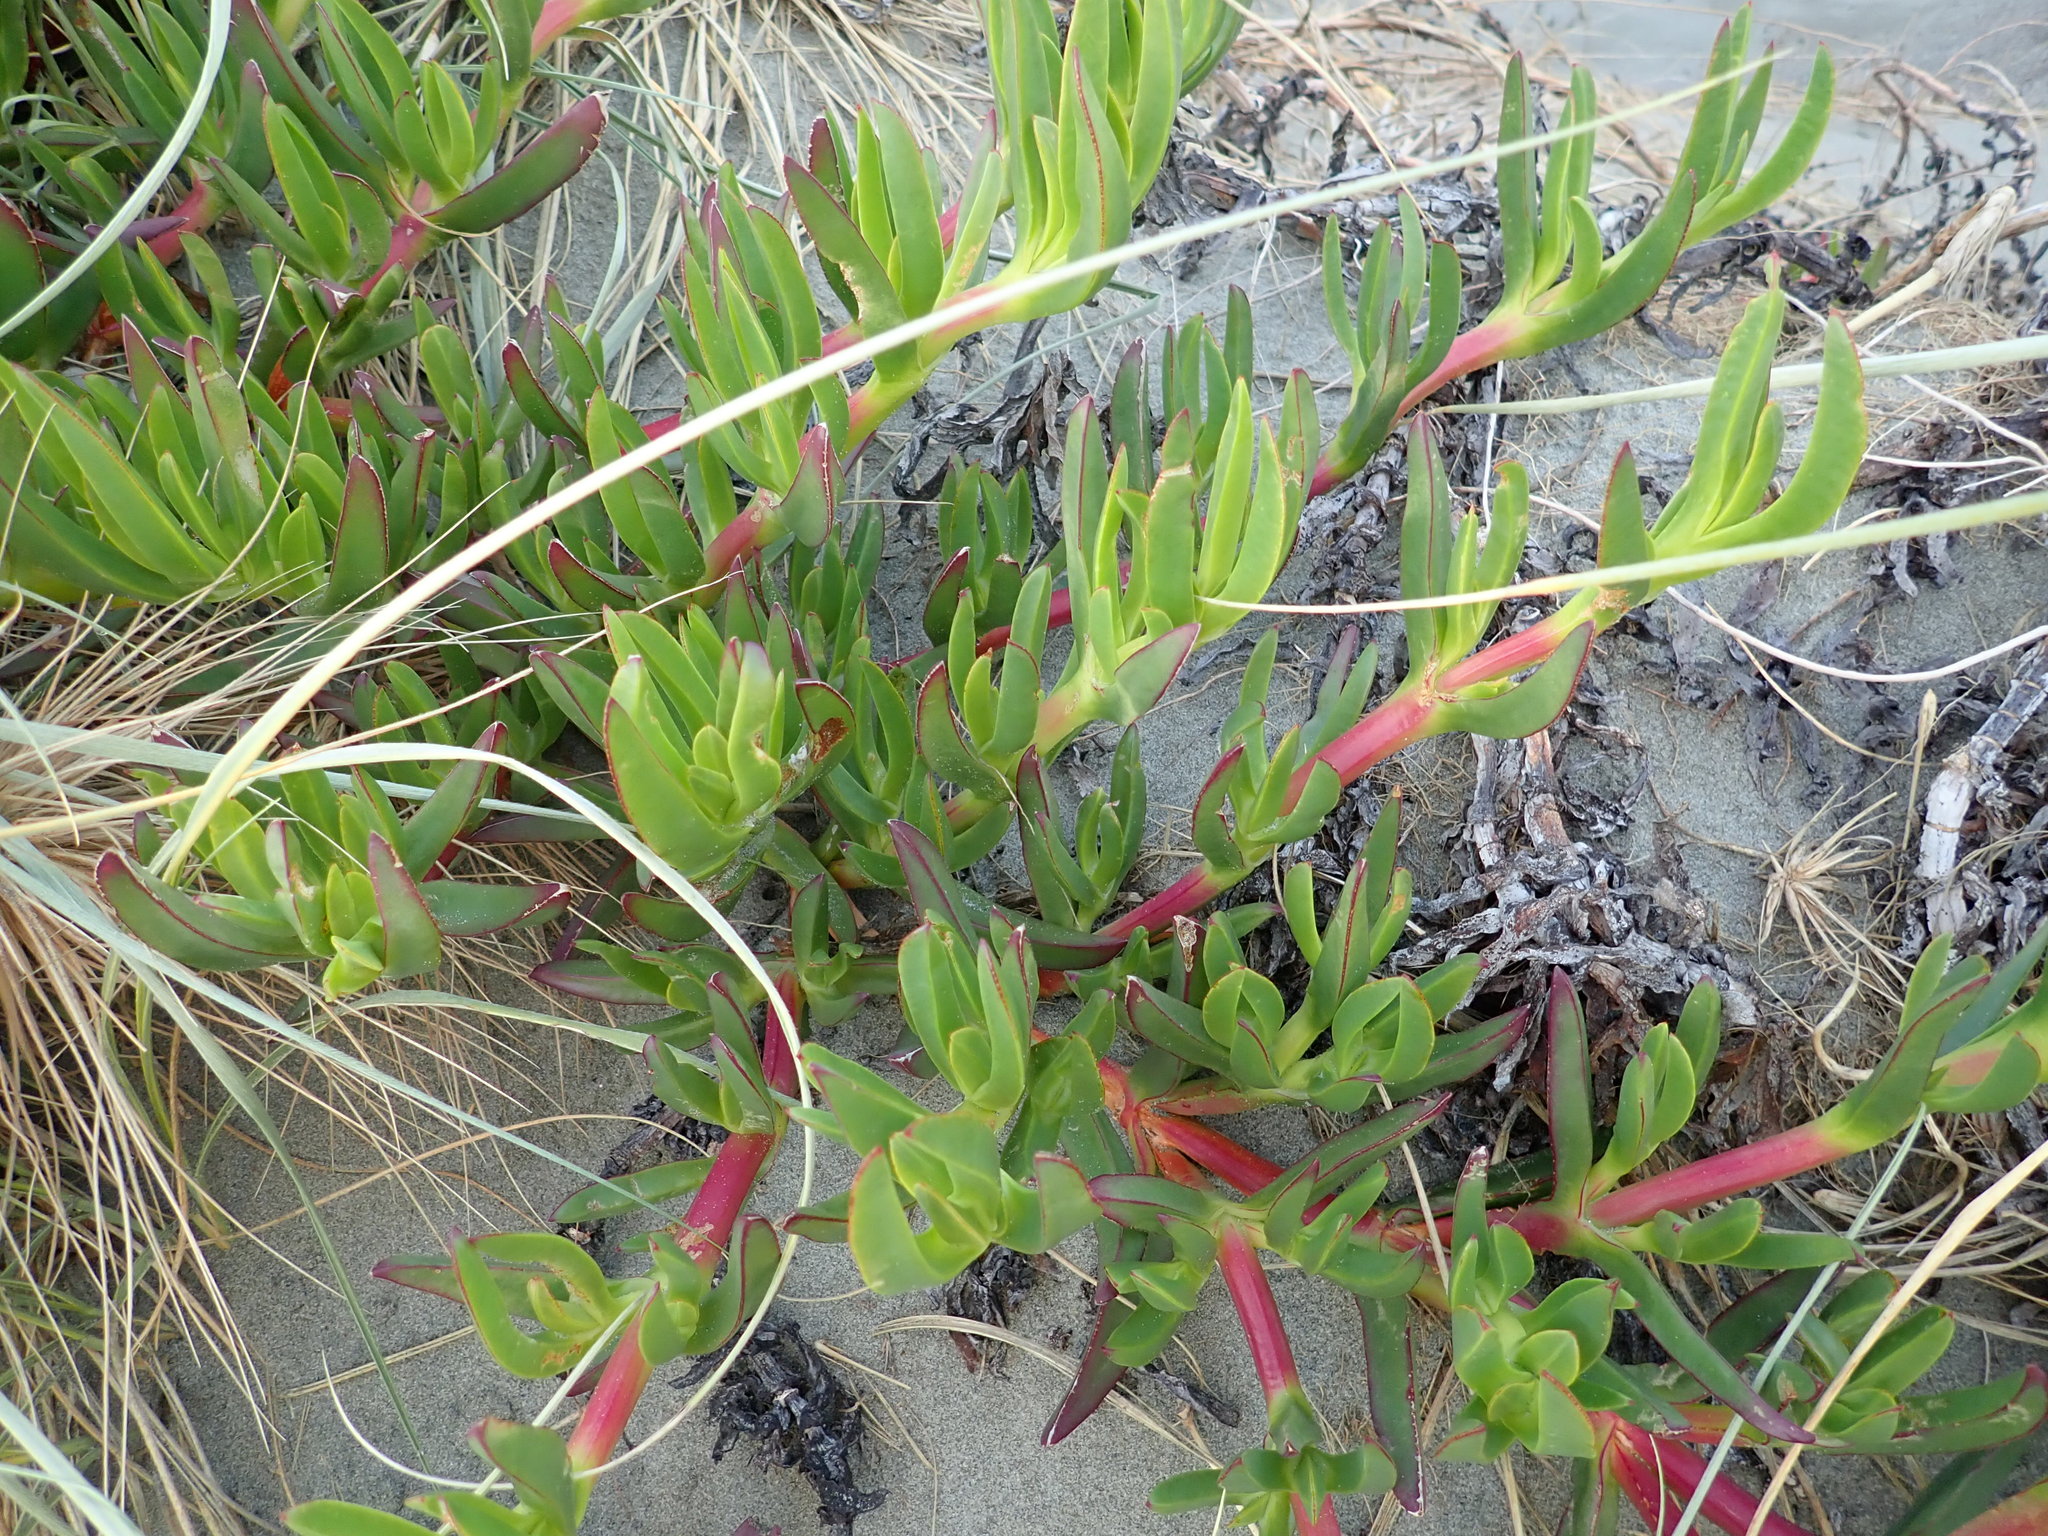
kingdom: Plantae
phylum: Tracheophyta
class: Magnoliopsida
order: Caryophyllales
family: Aizoaceae
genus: Carpobrotus
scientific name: Carpobrotus
